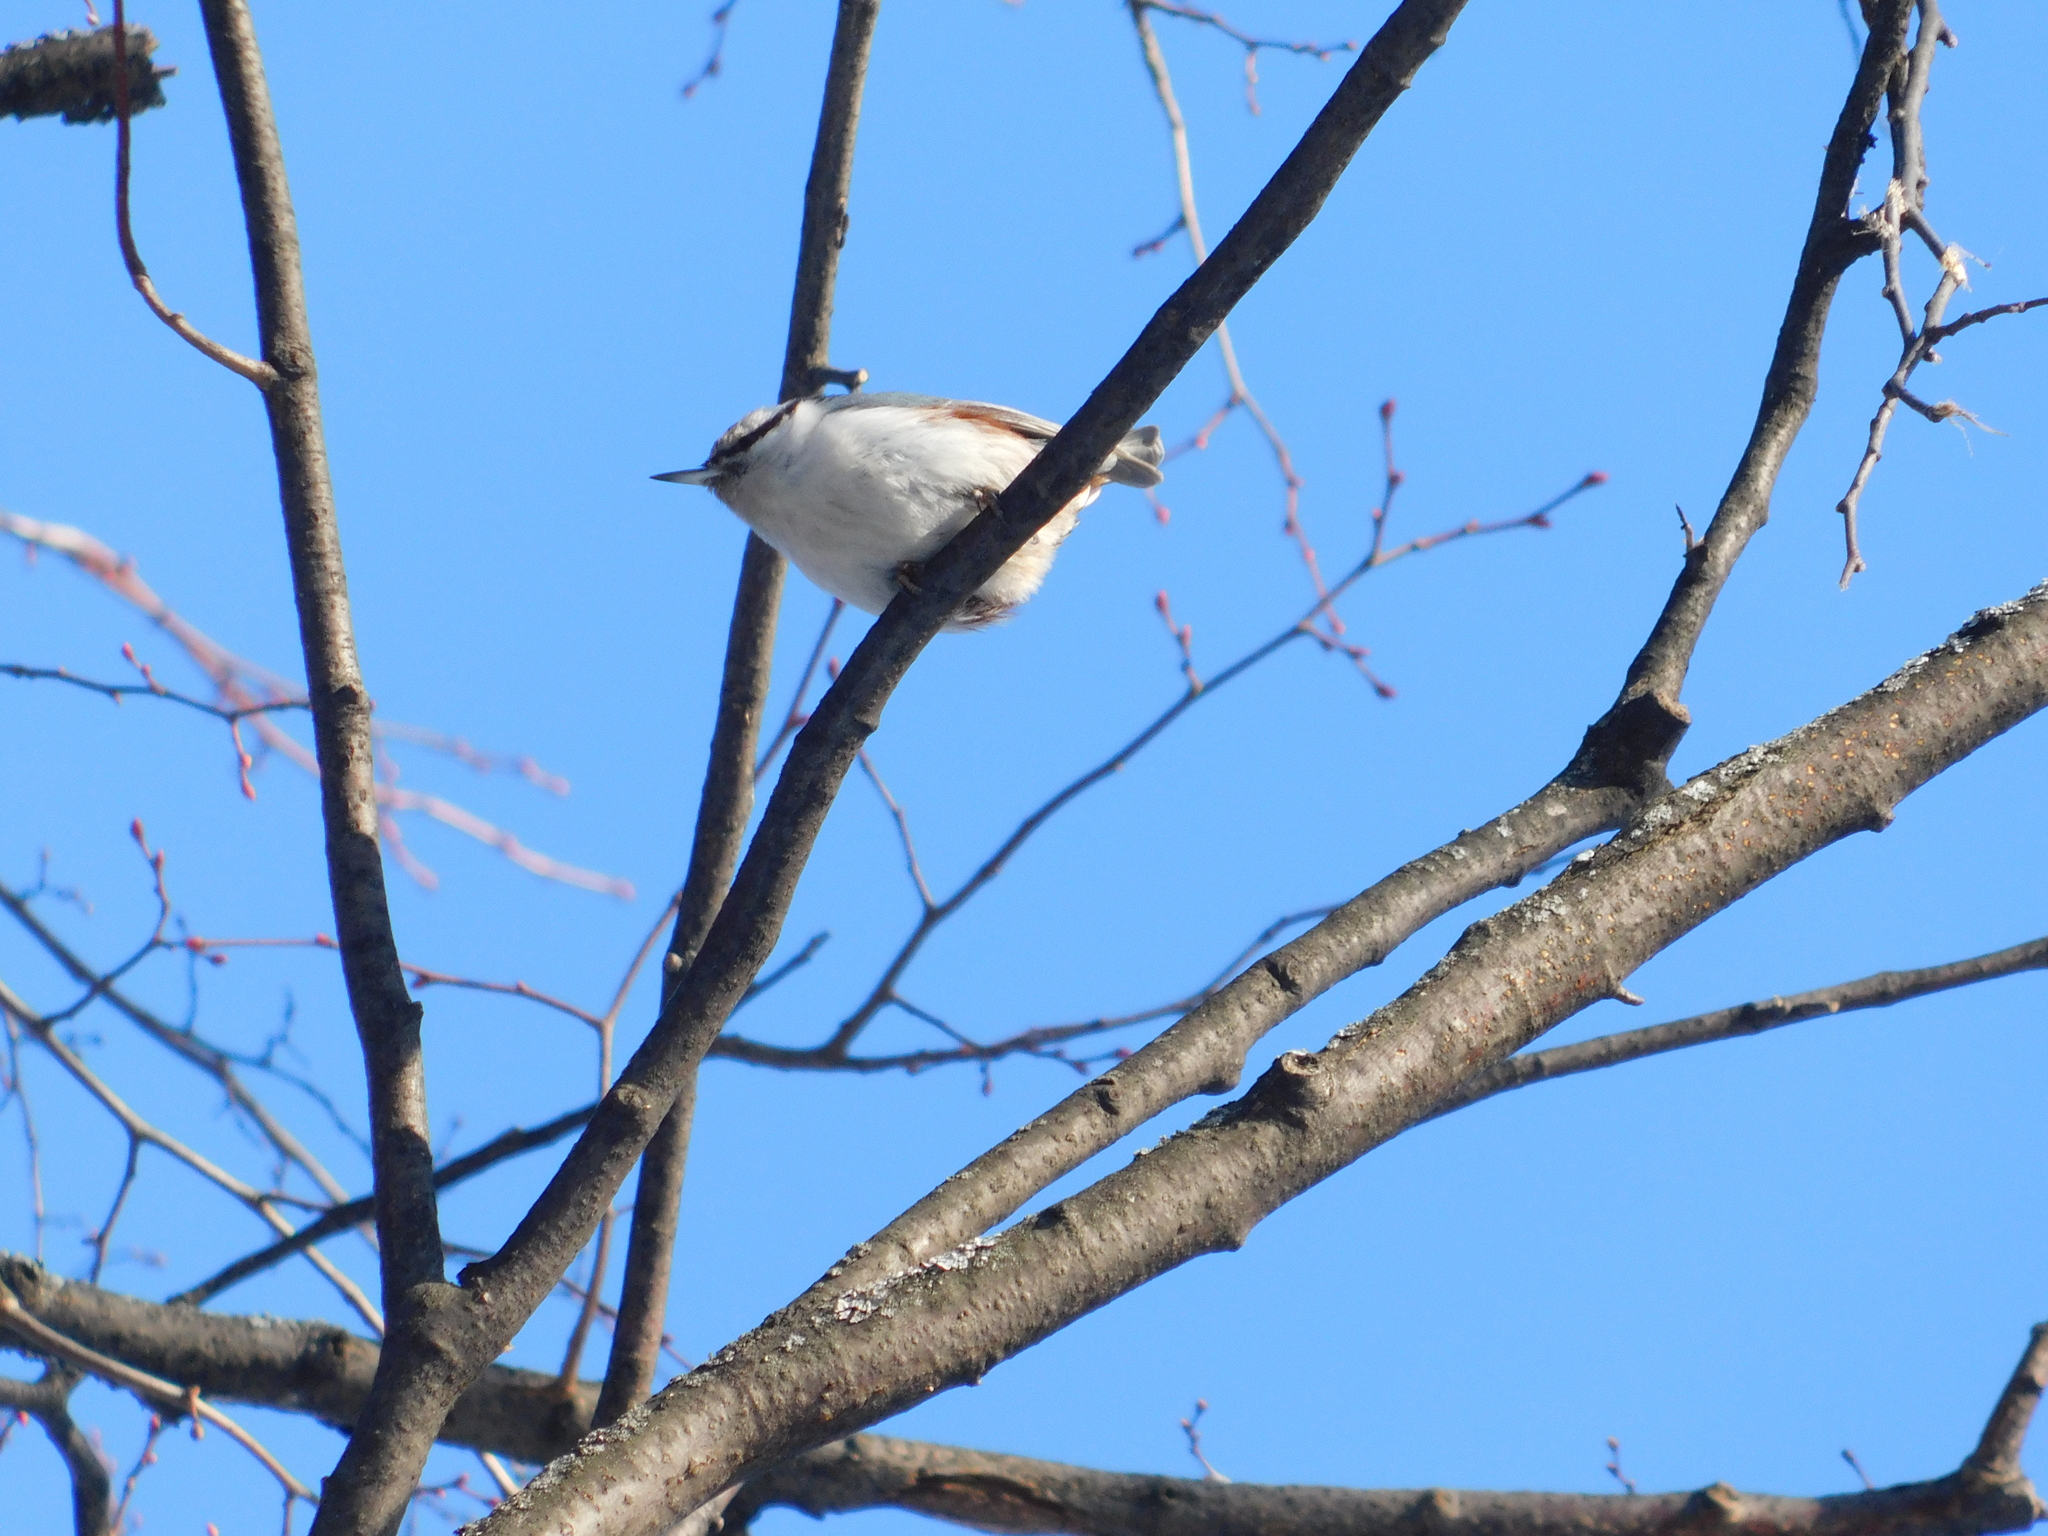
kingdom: Animalia
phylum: Chordata
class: Aves
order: Passeriformes
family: Sittidae
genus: Sitta
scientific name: Sitta europaea
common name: Eurasian nuthatch
